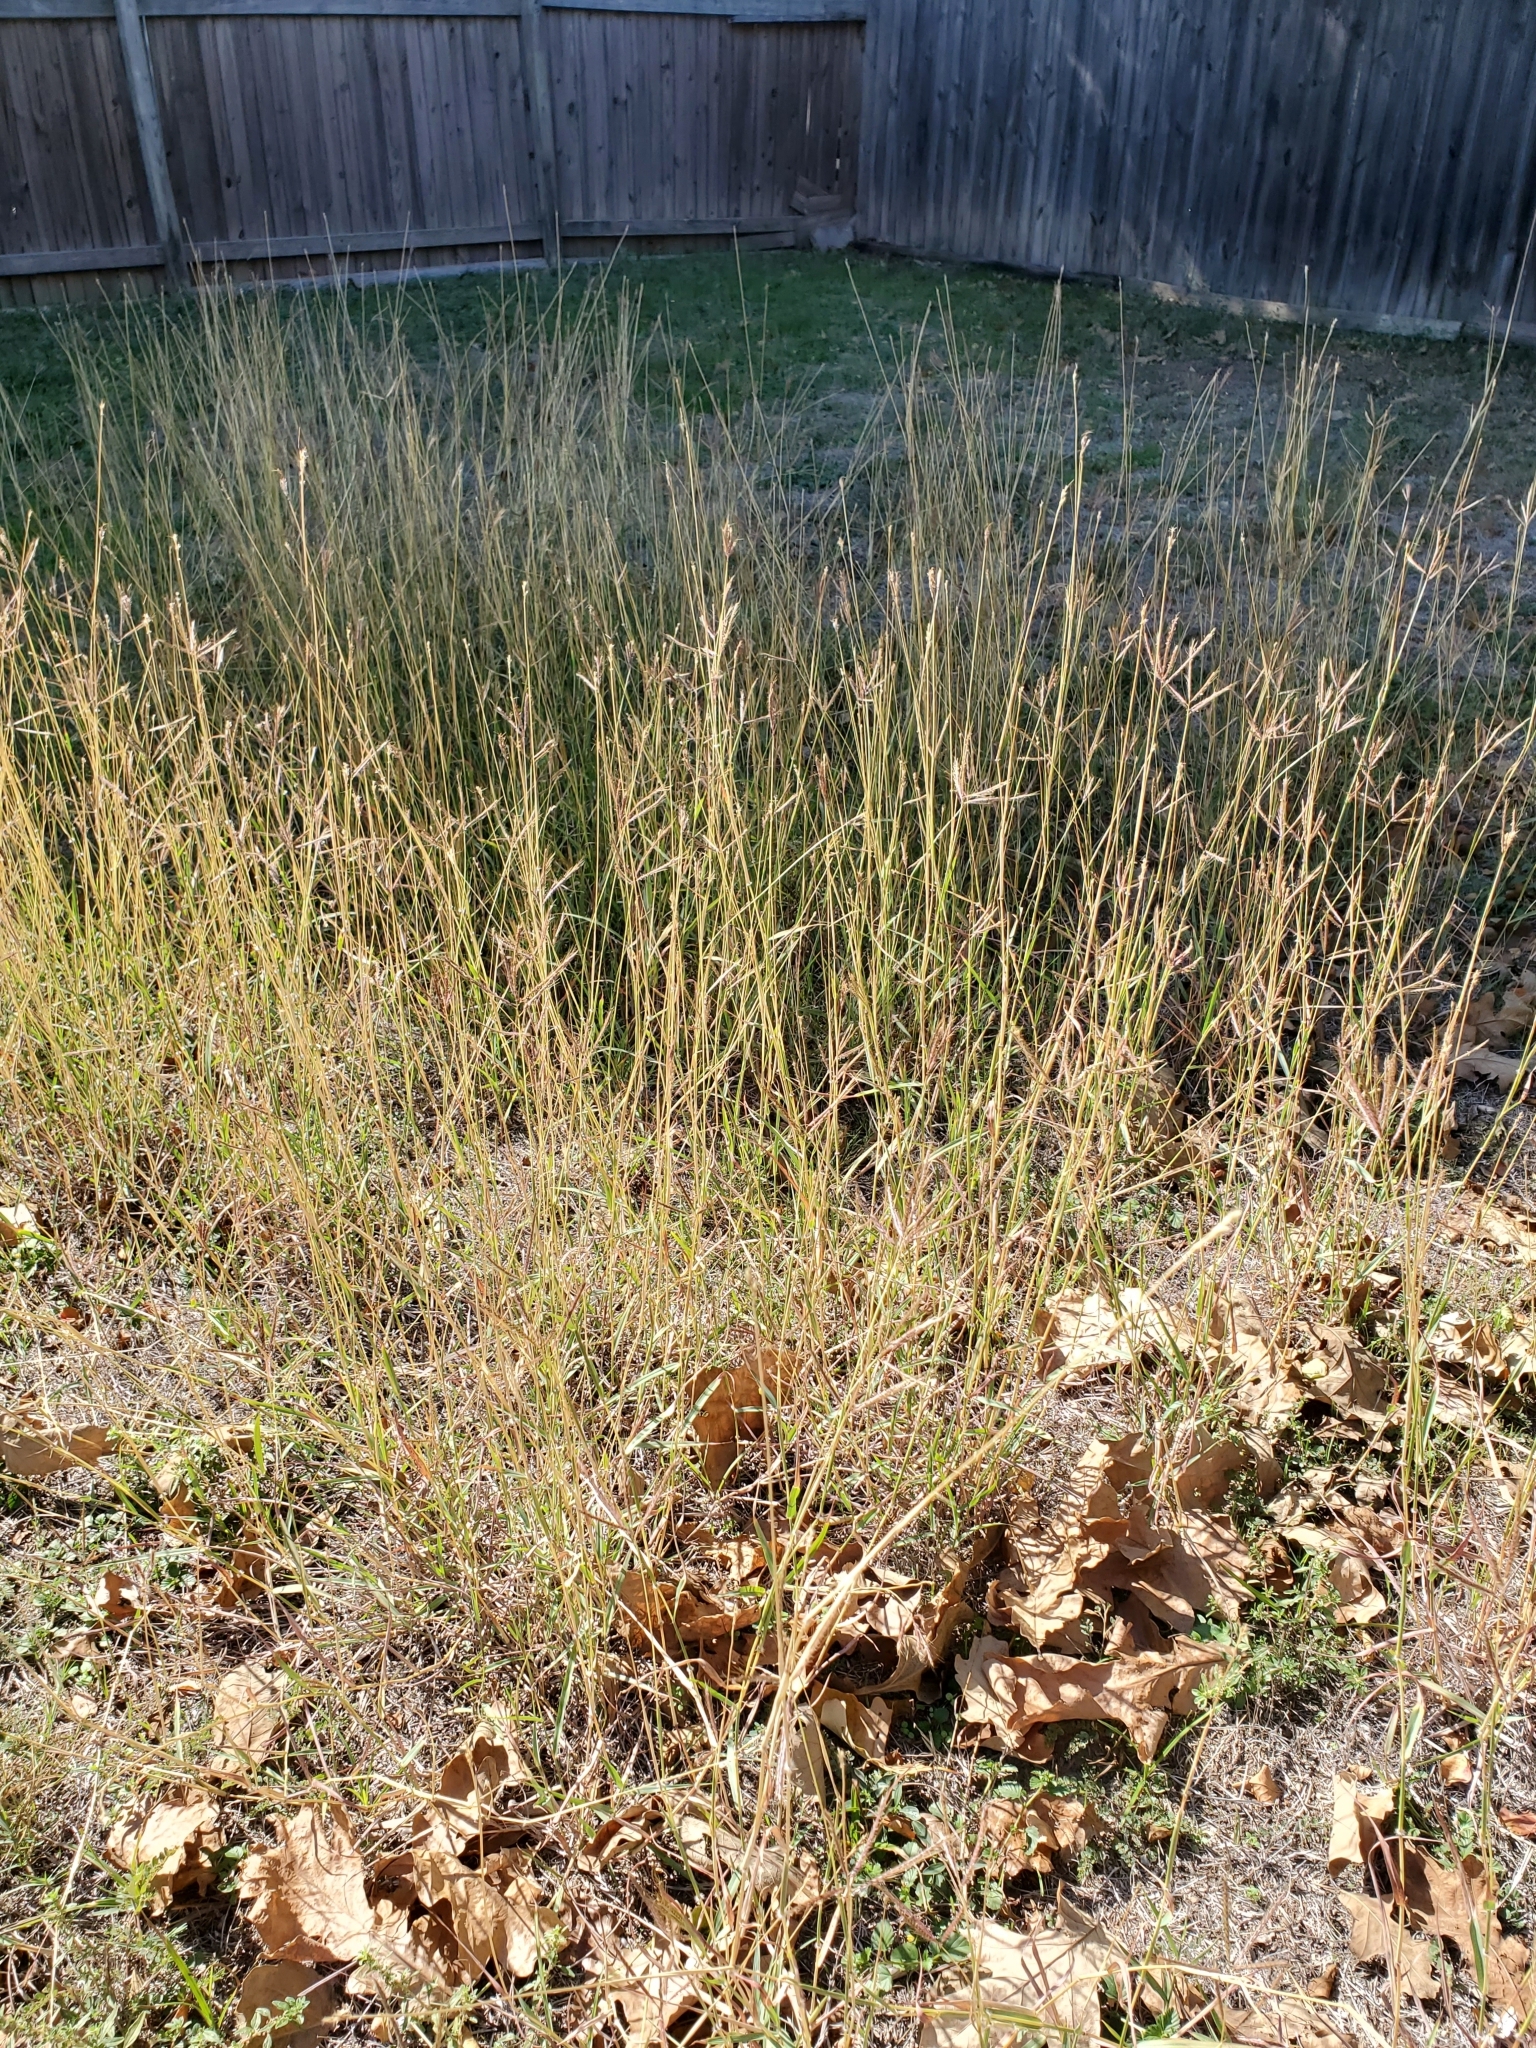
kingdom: Plantae
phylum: Tracheophyta
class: Liliopsida
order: Poales
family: Poaceae
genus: Dichanthium
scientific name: Dichanthium annulatum
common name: Kleberg's bluestem
